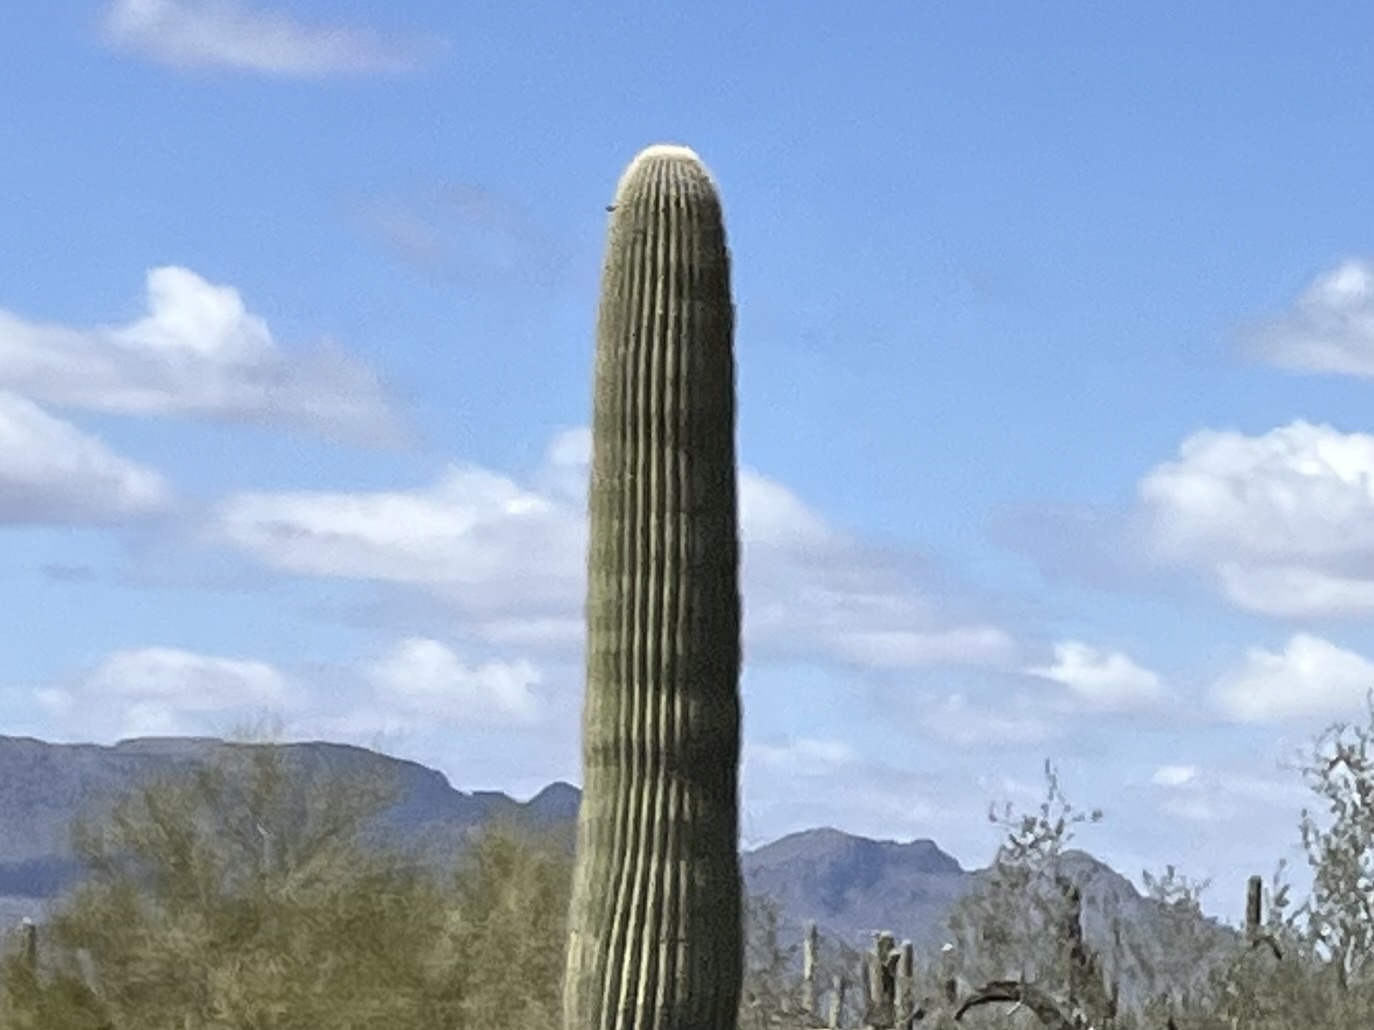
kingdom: Plantae
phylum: Tracheophyta
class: Magnoliopsida
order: Caryophyllales
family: Cactaceae
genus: Carnegiea
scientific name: Carnegiea gigantea
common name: Saguaro
